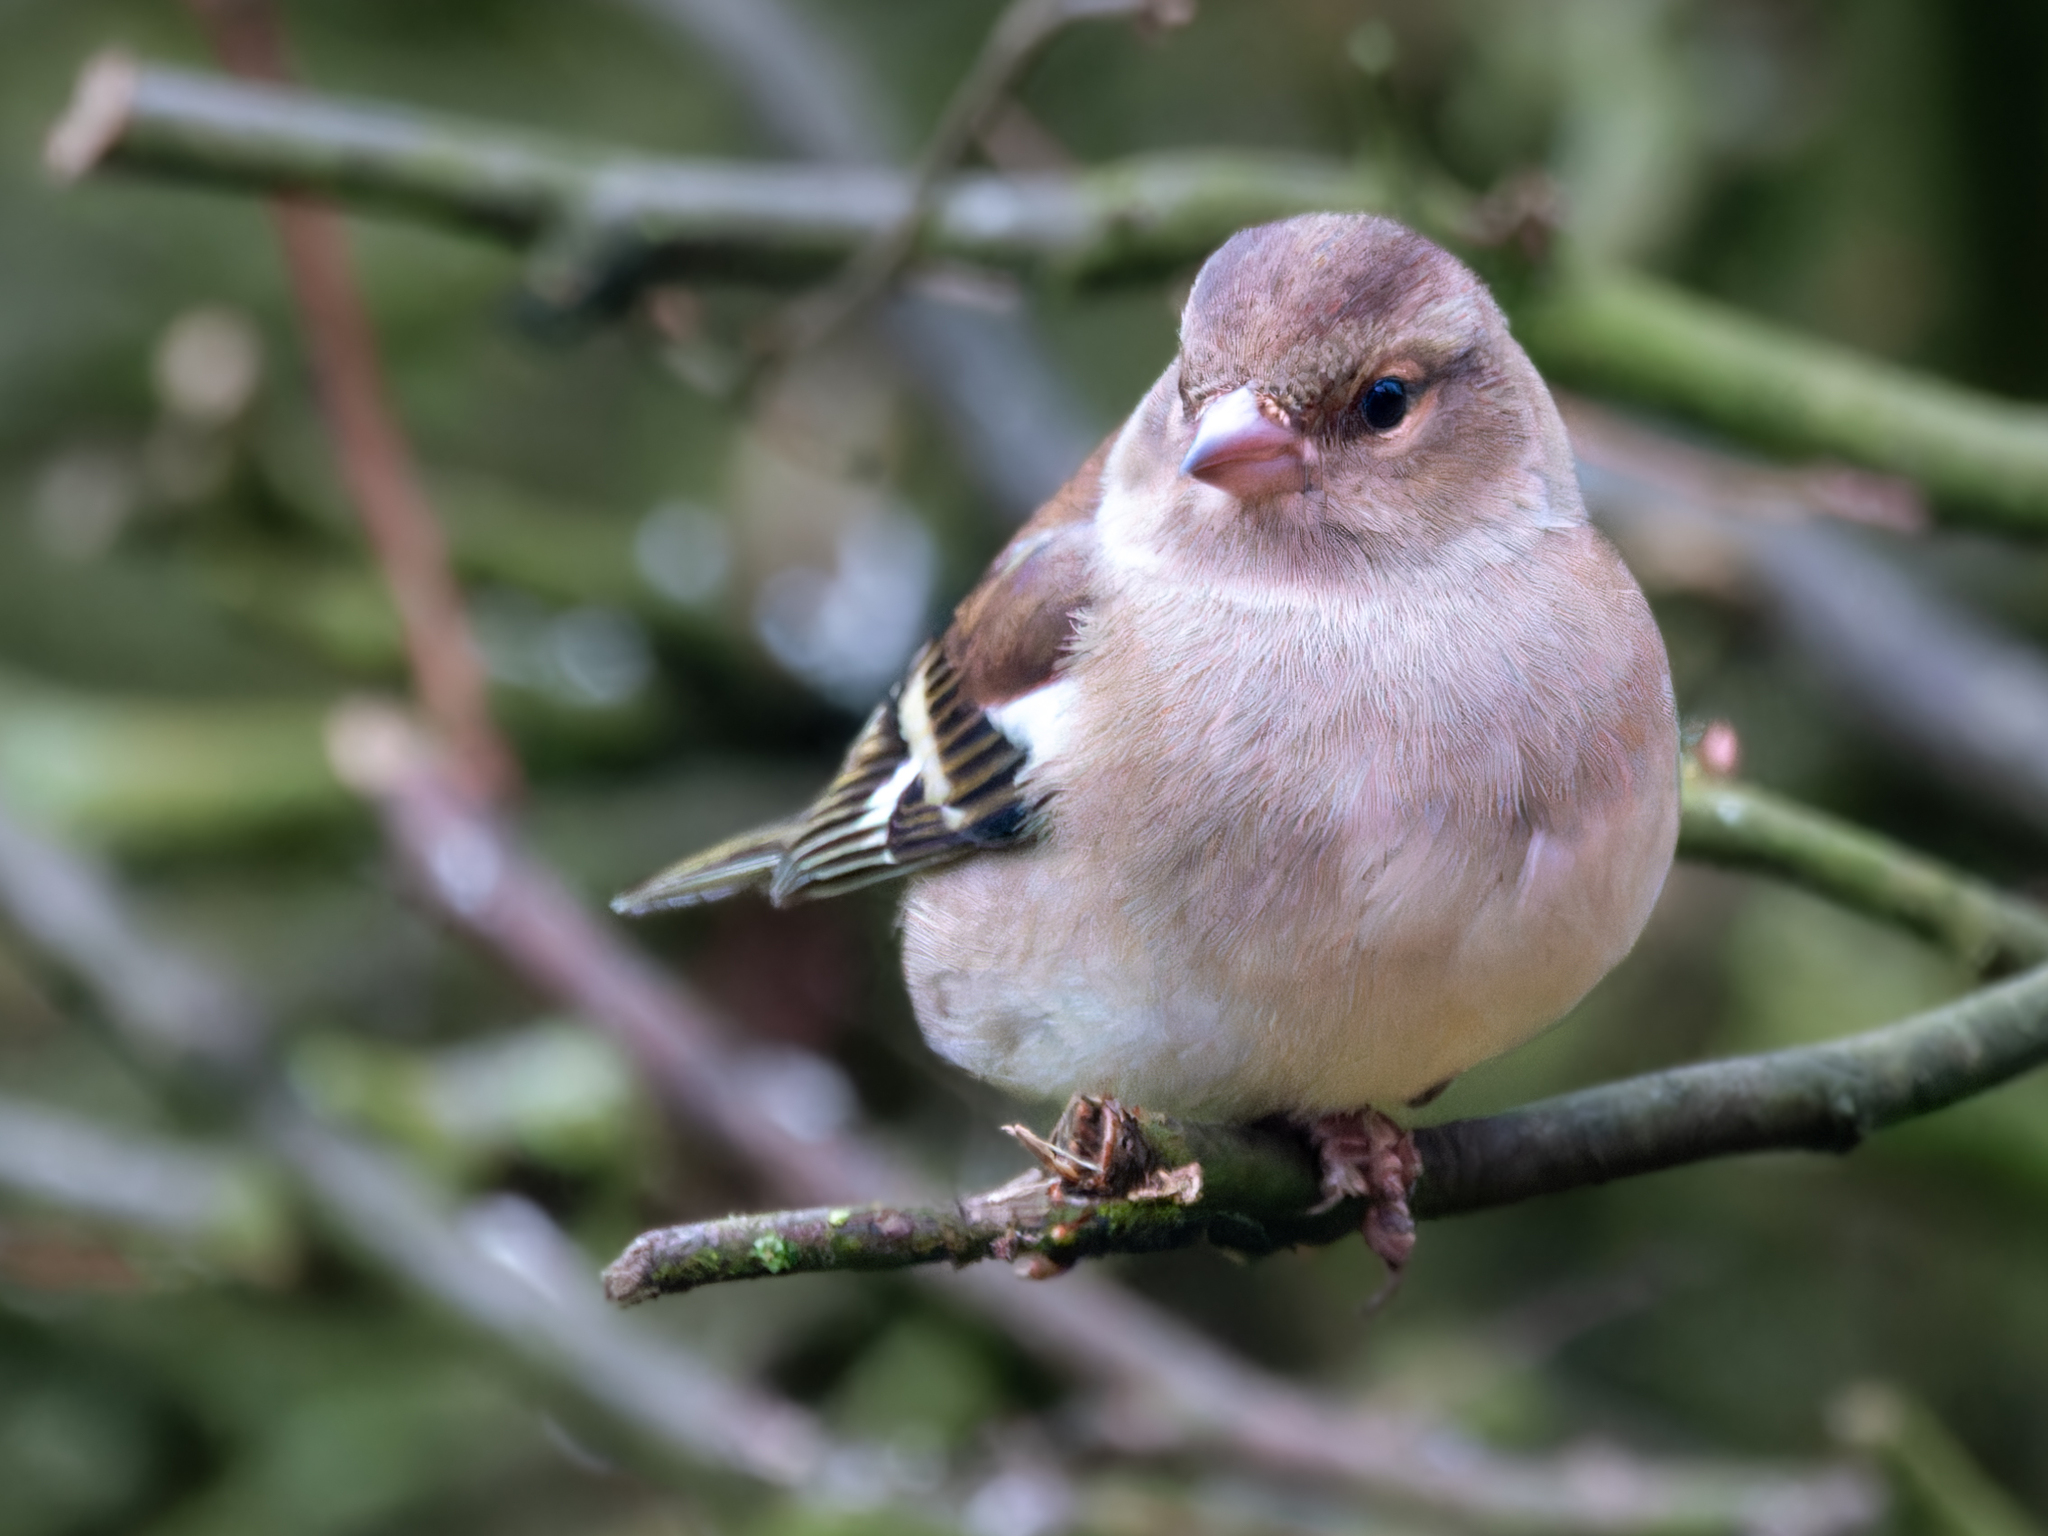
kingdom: Animalia
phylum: Chordata
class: Aves
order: Passeriformes
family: Fringillidae
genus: Fringilla
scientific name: Fringilla coelebs
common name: Common chaffinch
